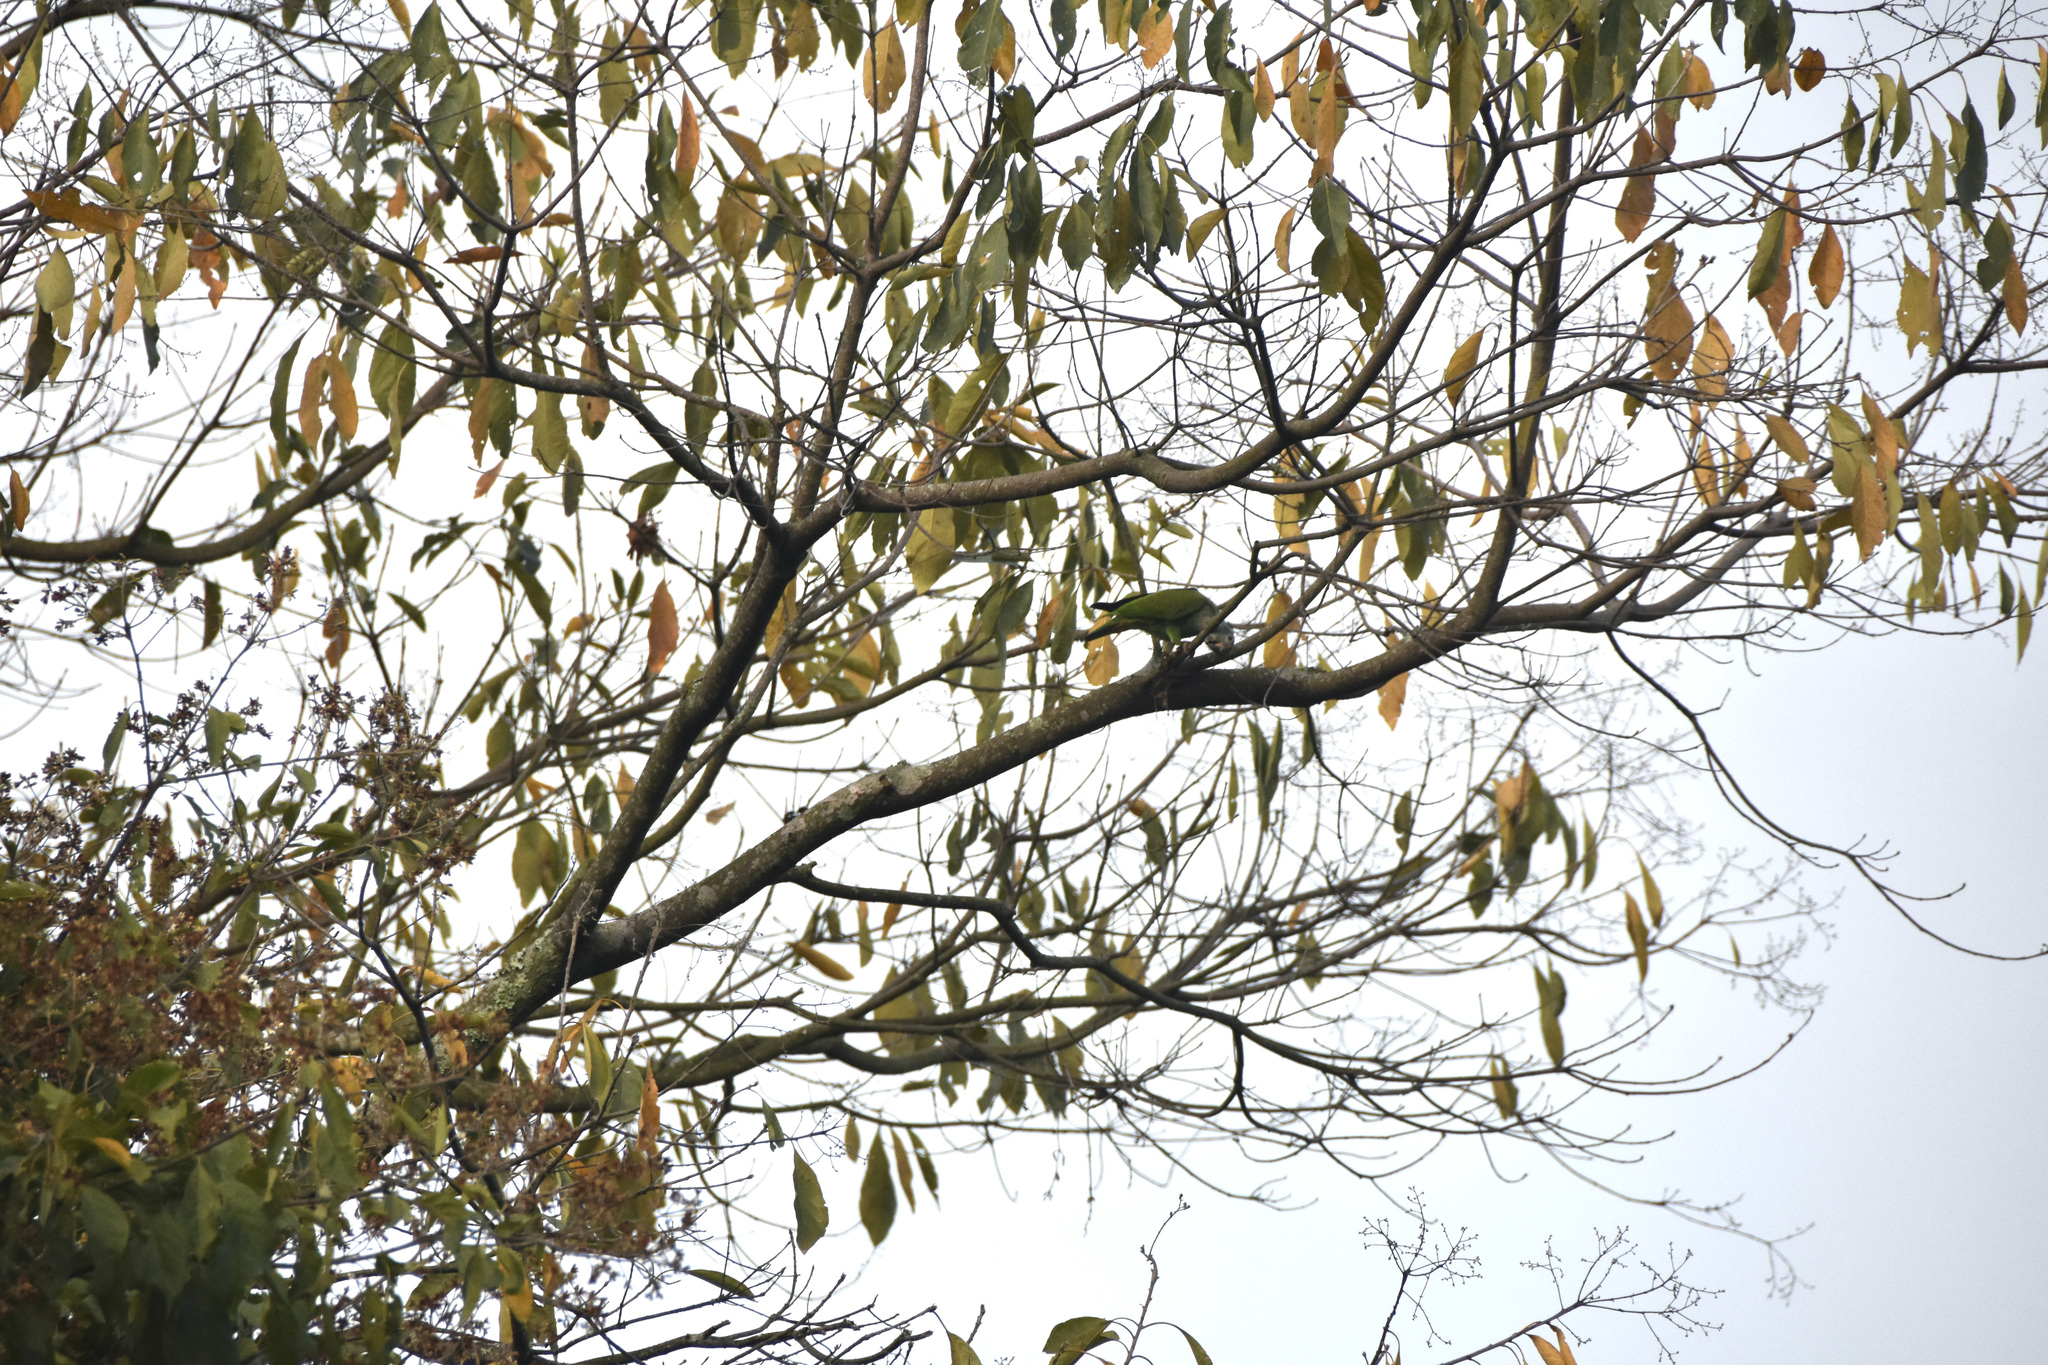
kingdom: Animalia
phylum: Chordata
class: Aves
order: Psittaciformes
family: Psittacidae
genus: Pionus
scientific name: Pionus menstruus
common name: Blue-headed parrot
